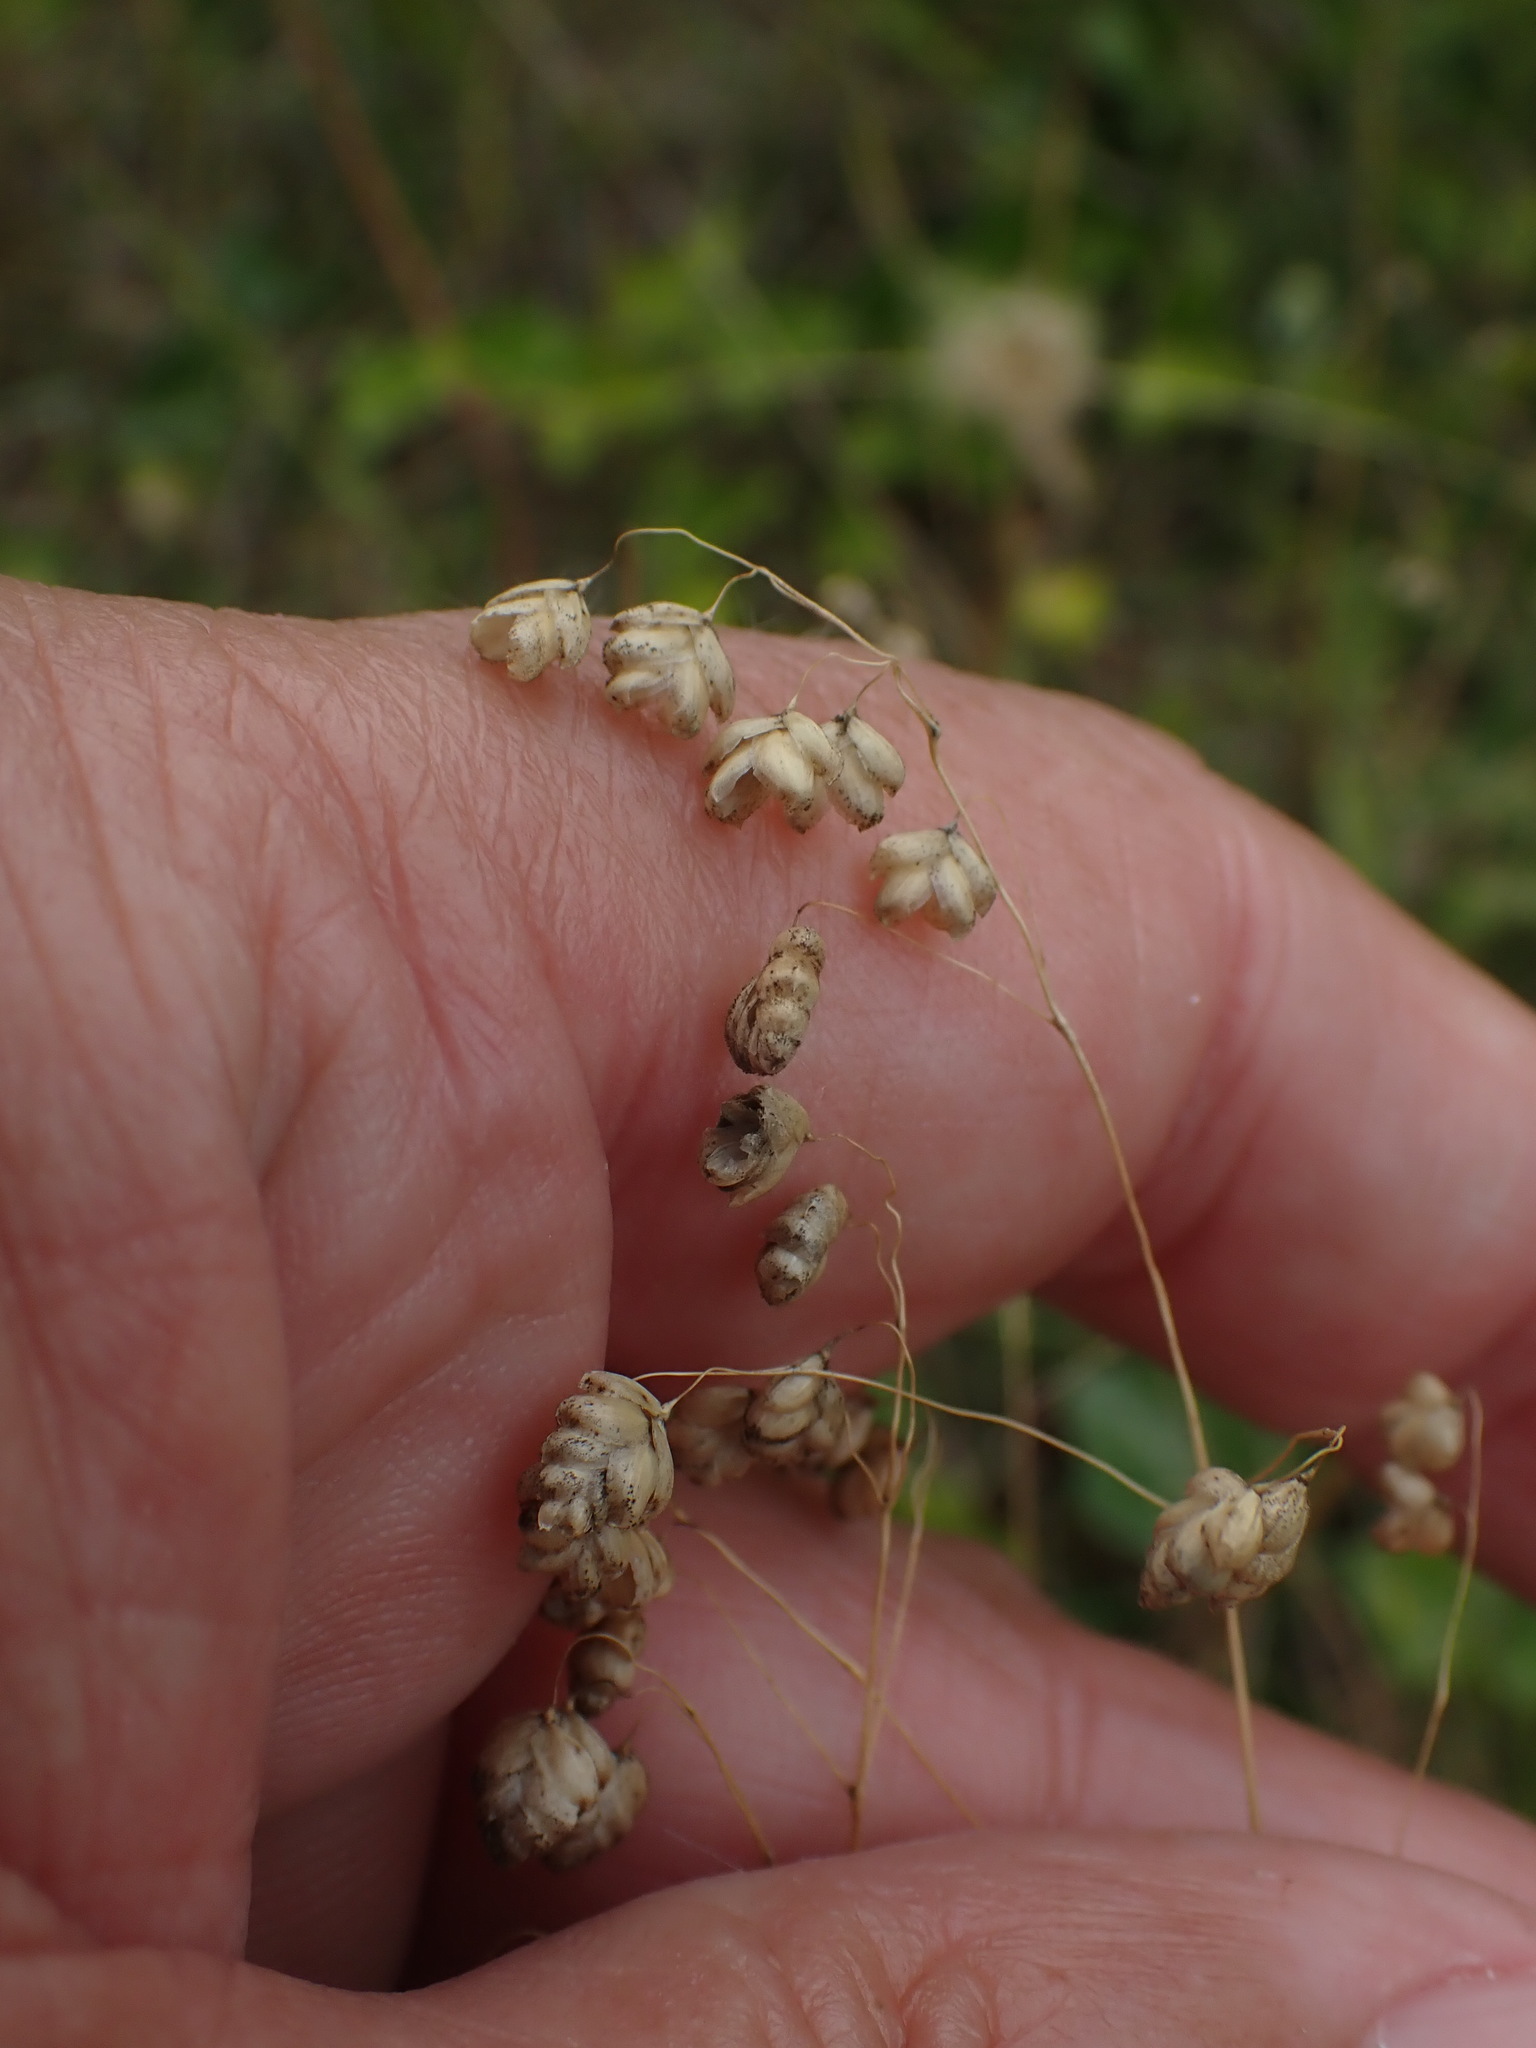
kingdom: Plantae
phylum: Tracheophyta
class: Liliopsida
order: Poales
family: Poaceae
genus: Briza
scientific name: Briza media
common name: Quaking grass
